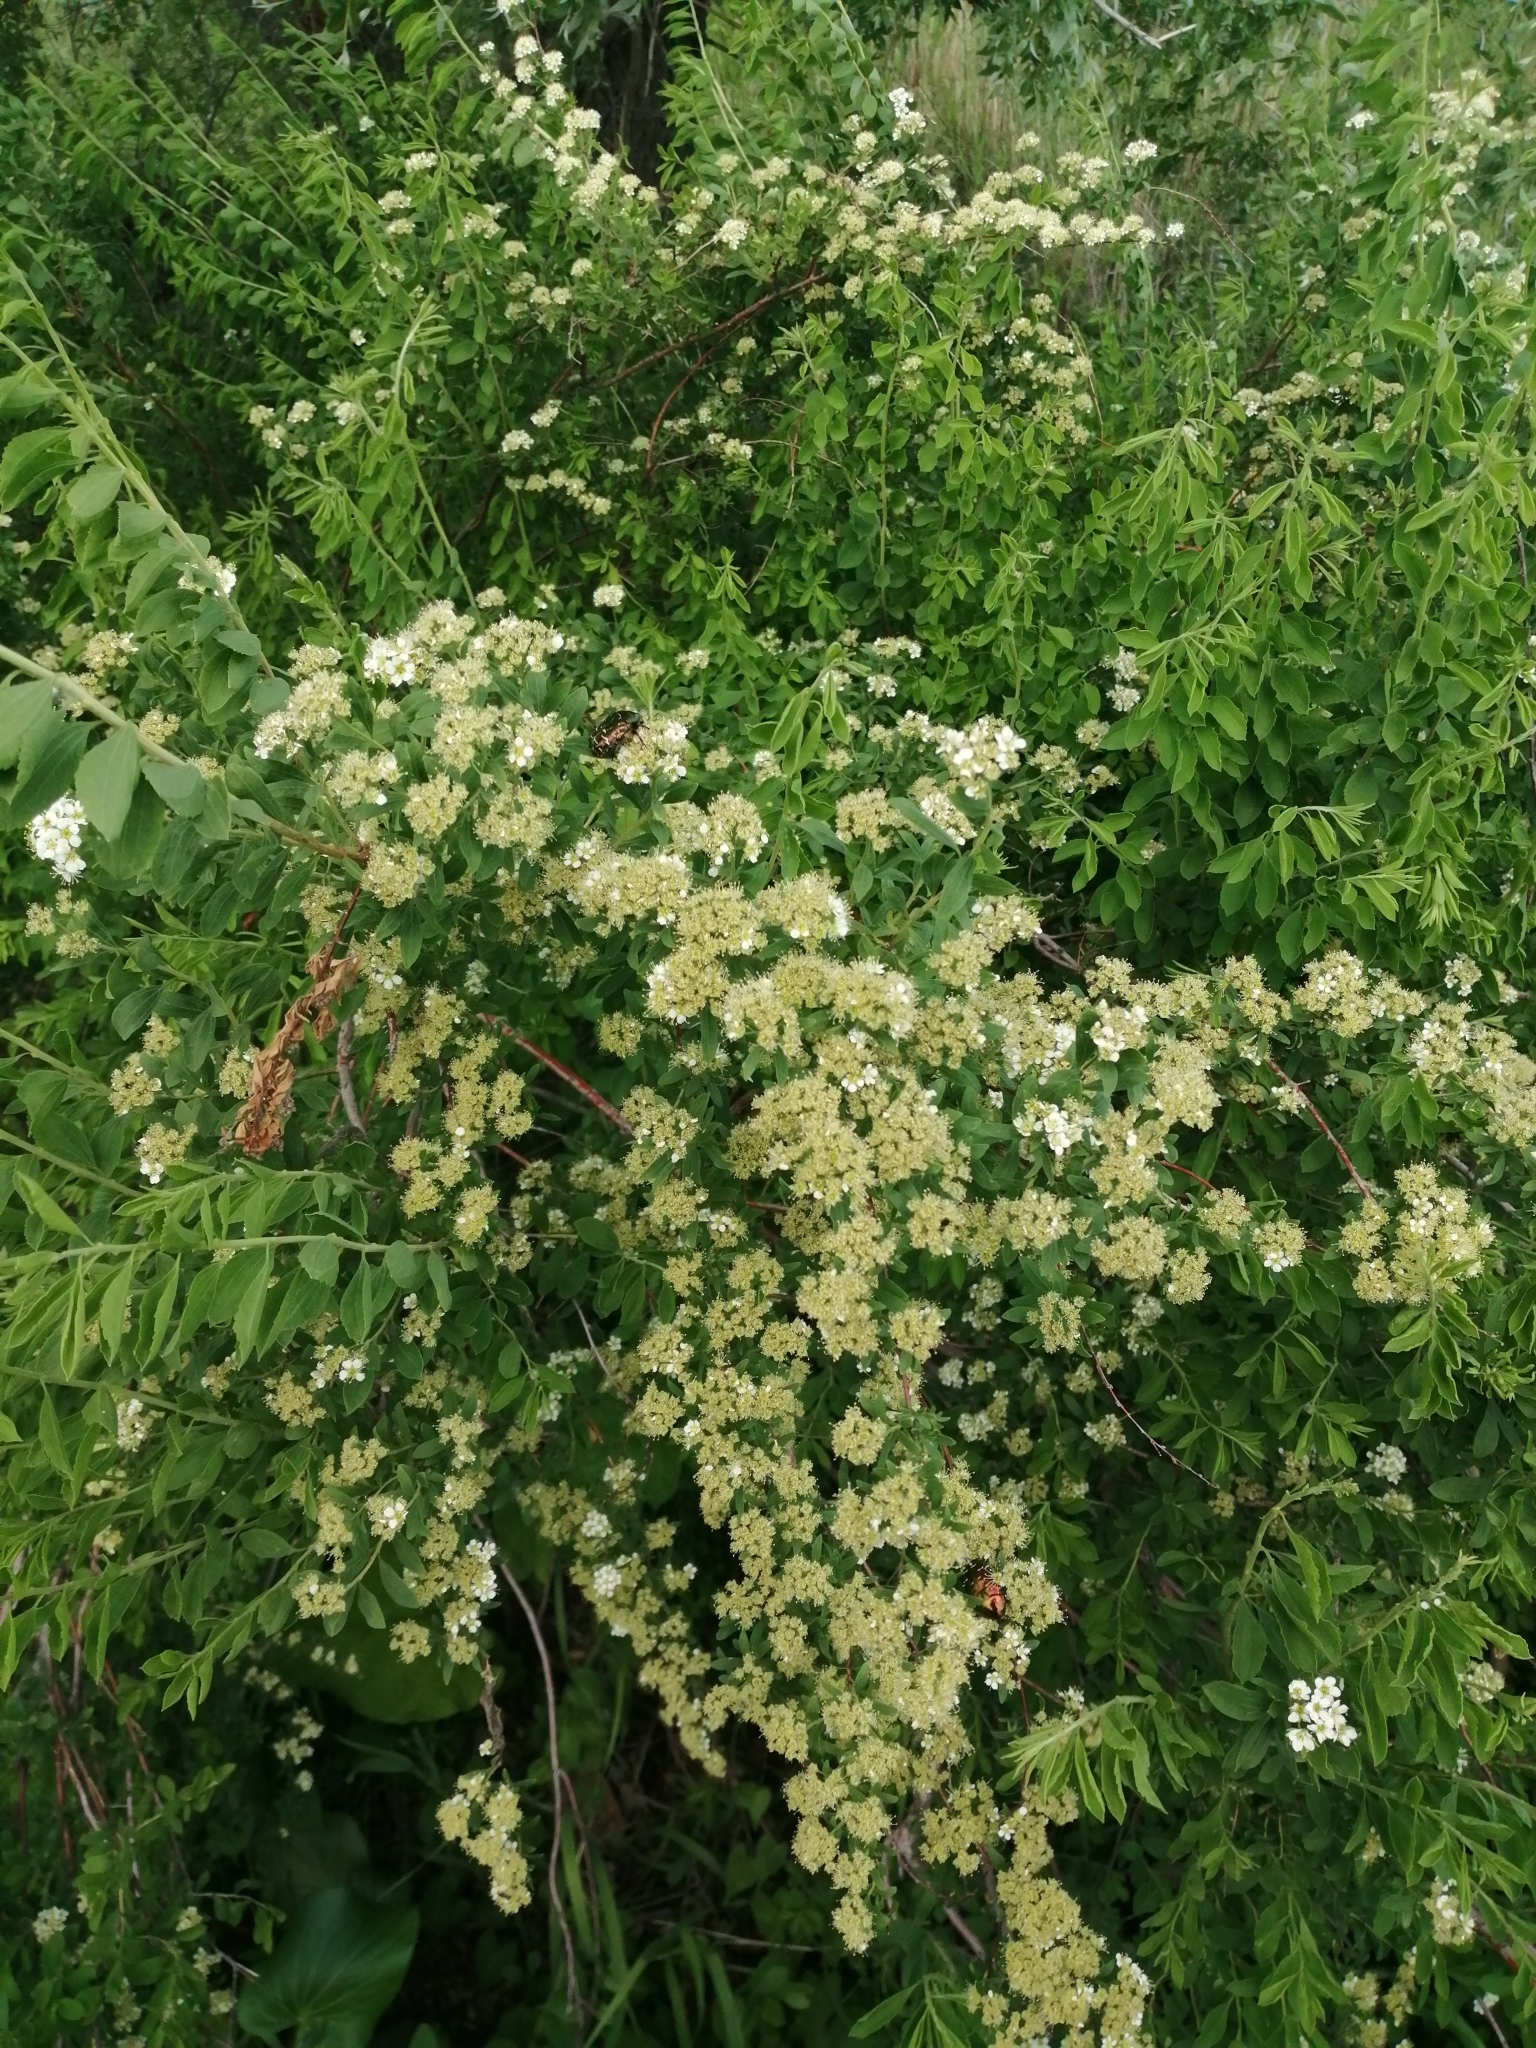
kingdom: Plantae
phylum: Tracheophyta
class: Magnoliopsida
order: Rosales
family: Rosaceae
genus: Spiraea
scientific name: Spiraea crenata
